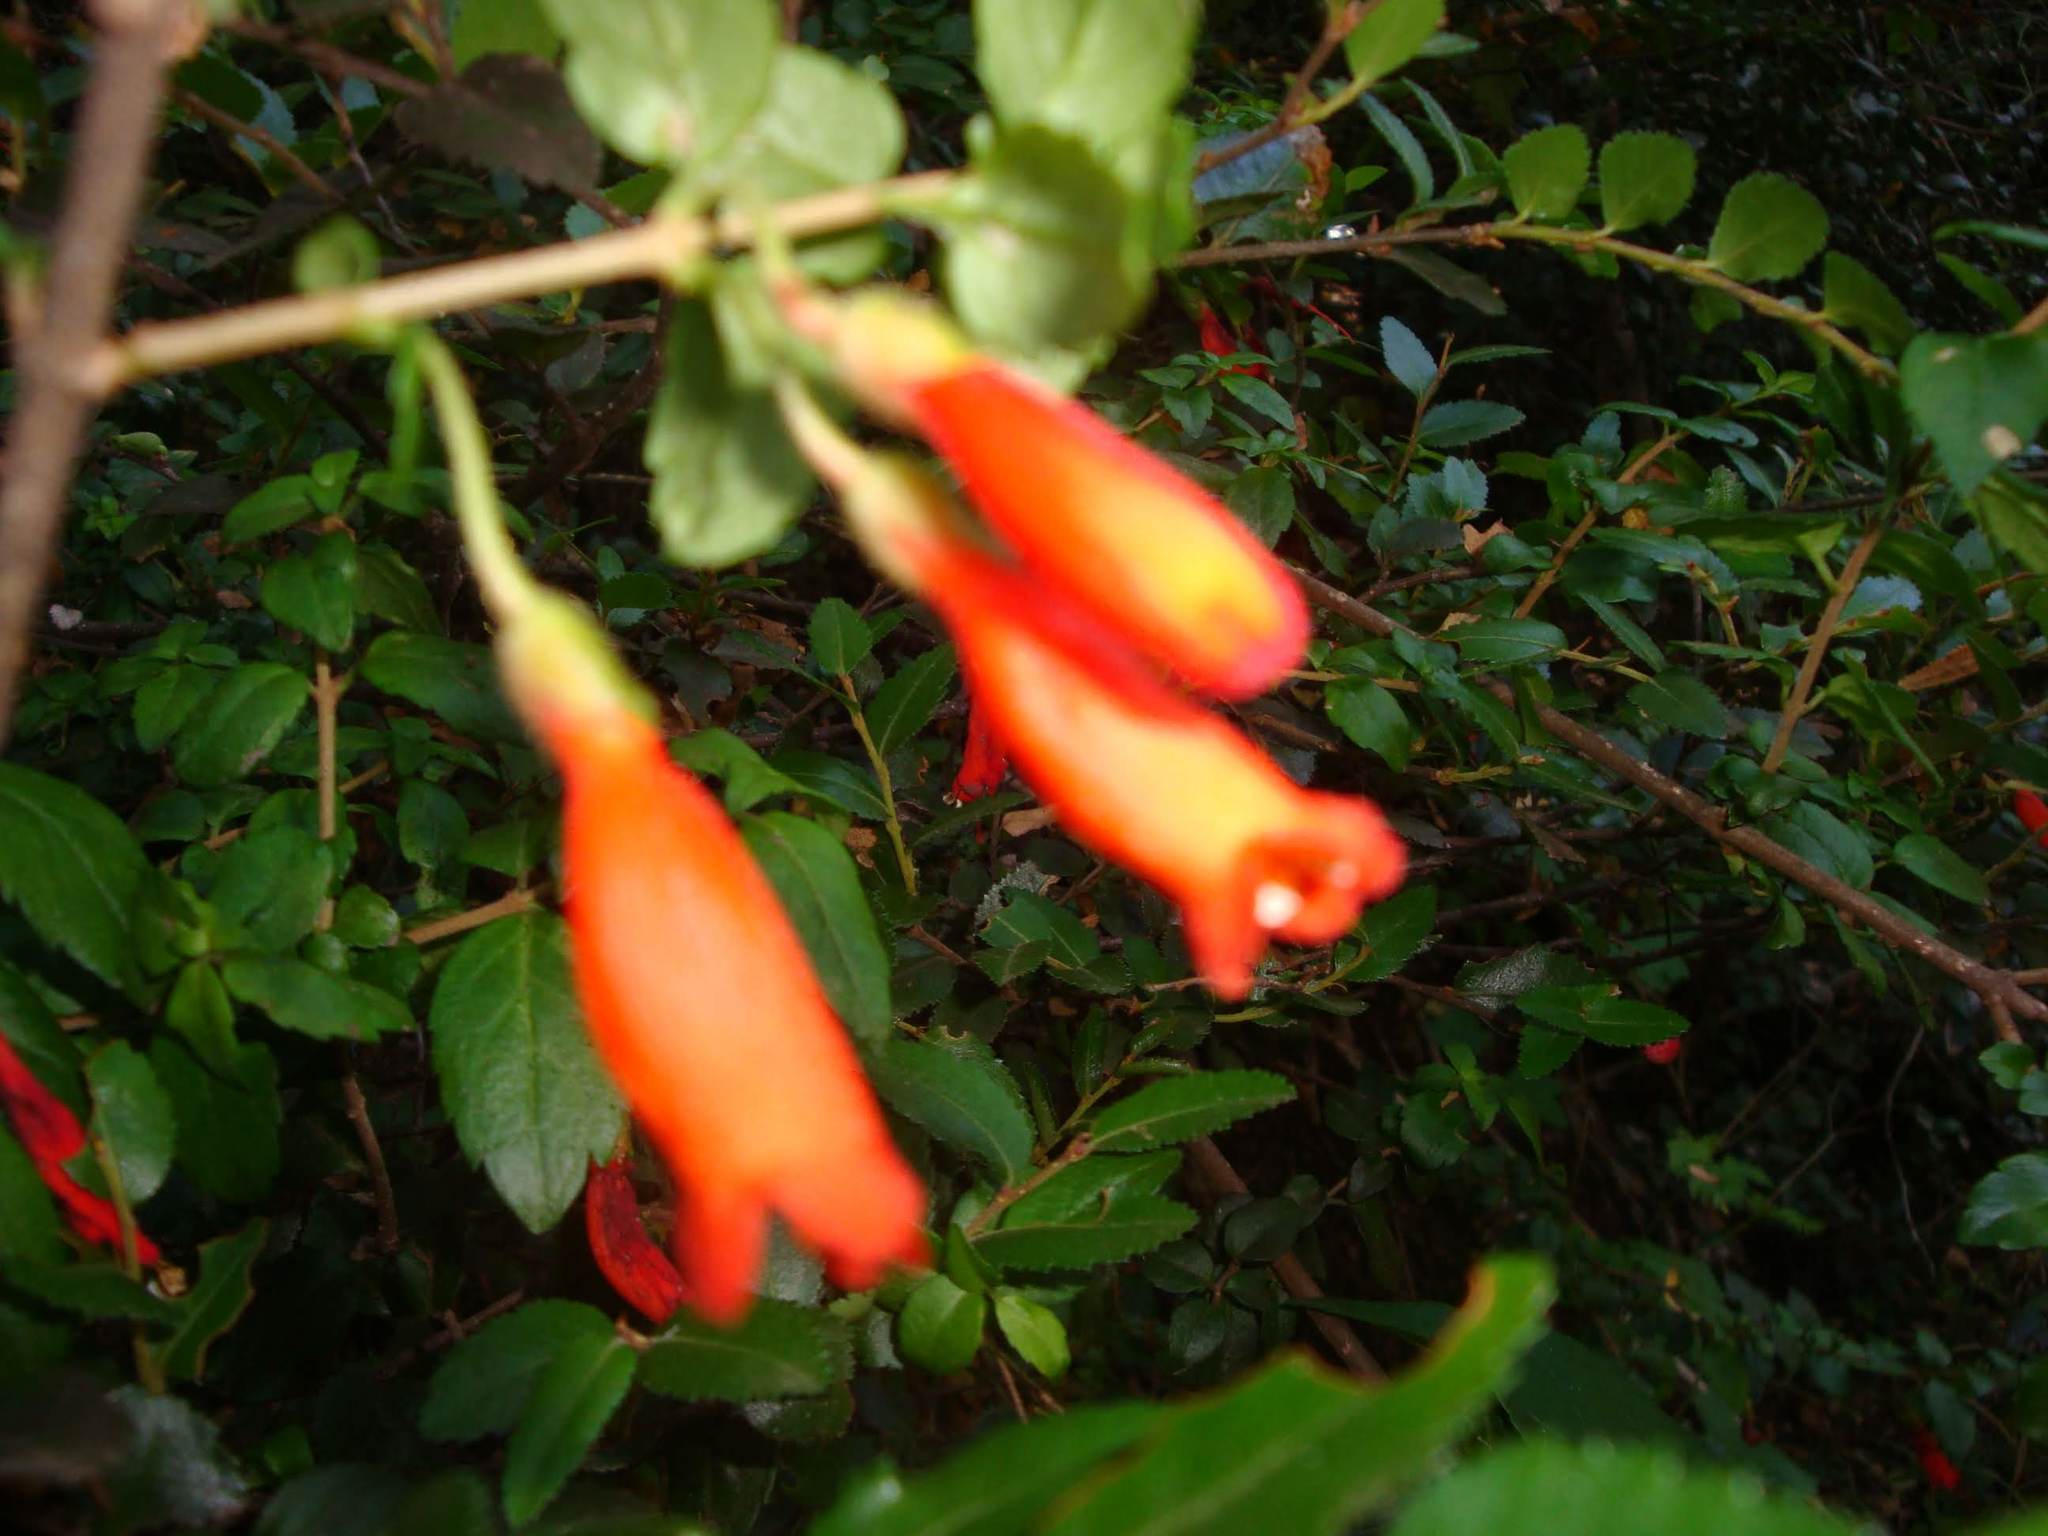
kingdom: Plantae
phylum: Tracheophyta
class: Magnoliopsida
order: Lamiales
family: Gesneriaceae
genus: Mitraria
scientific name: Mitraria coccinea
